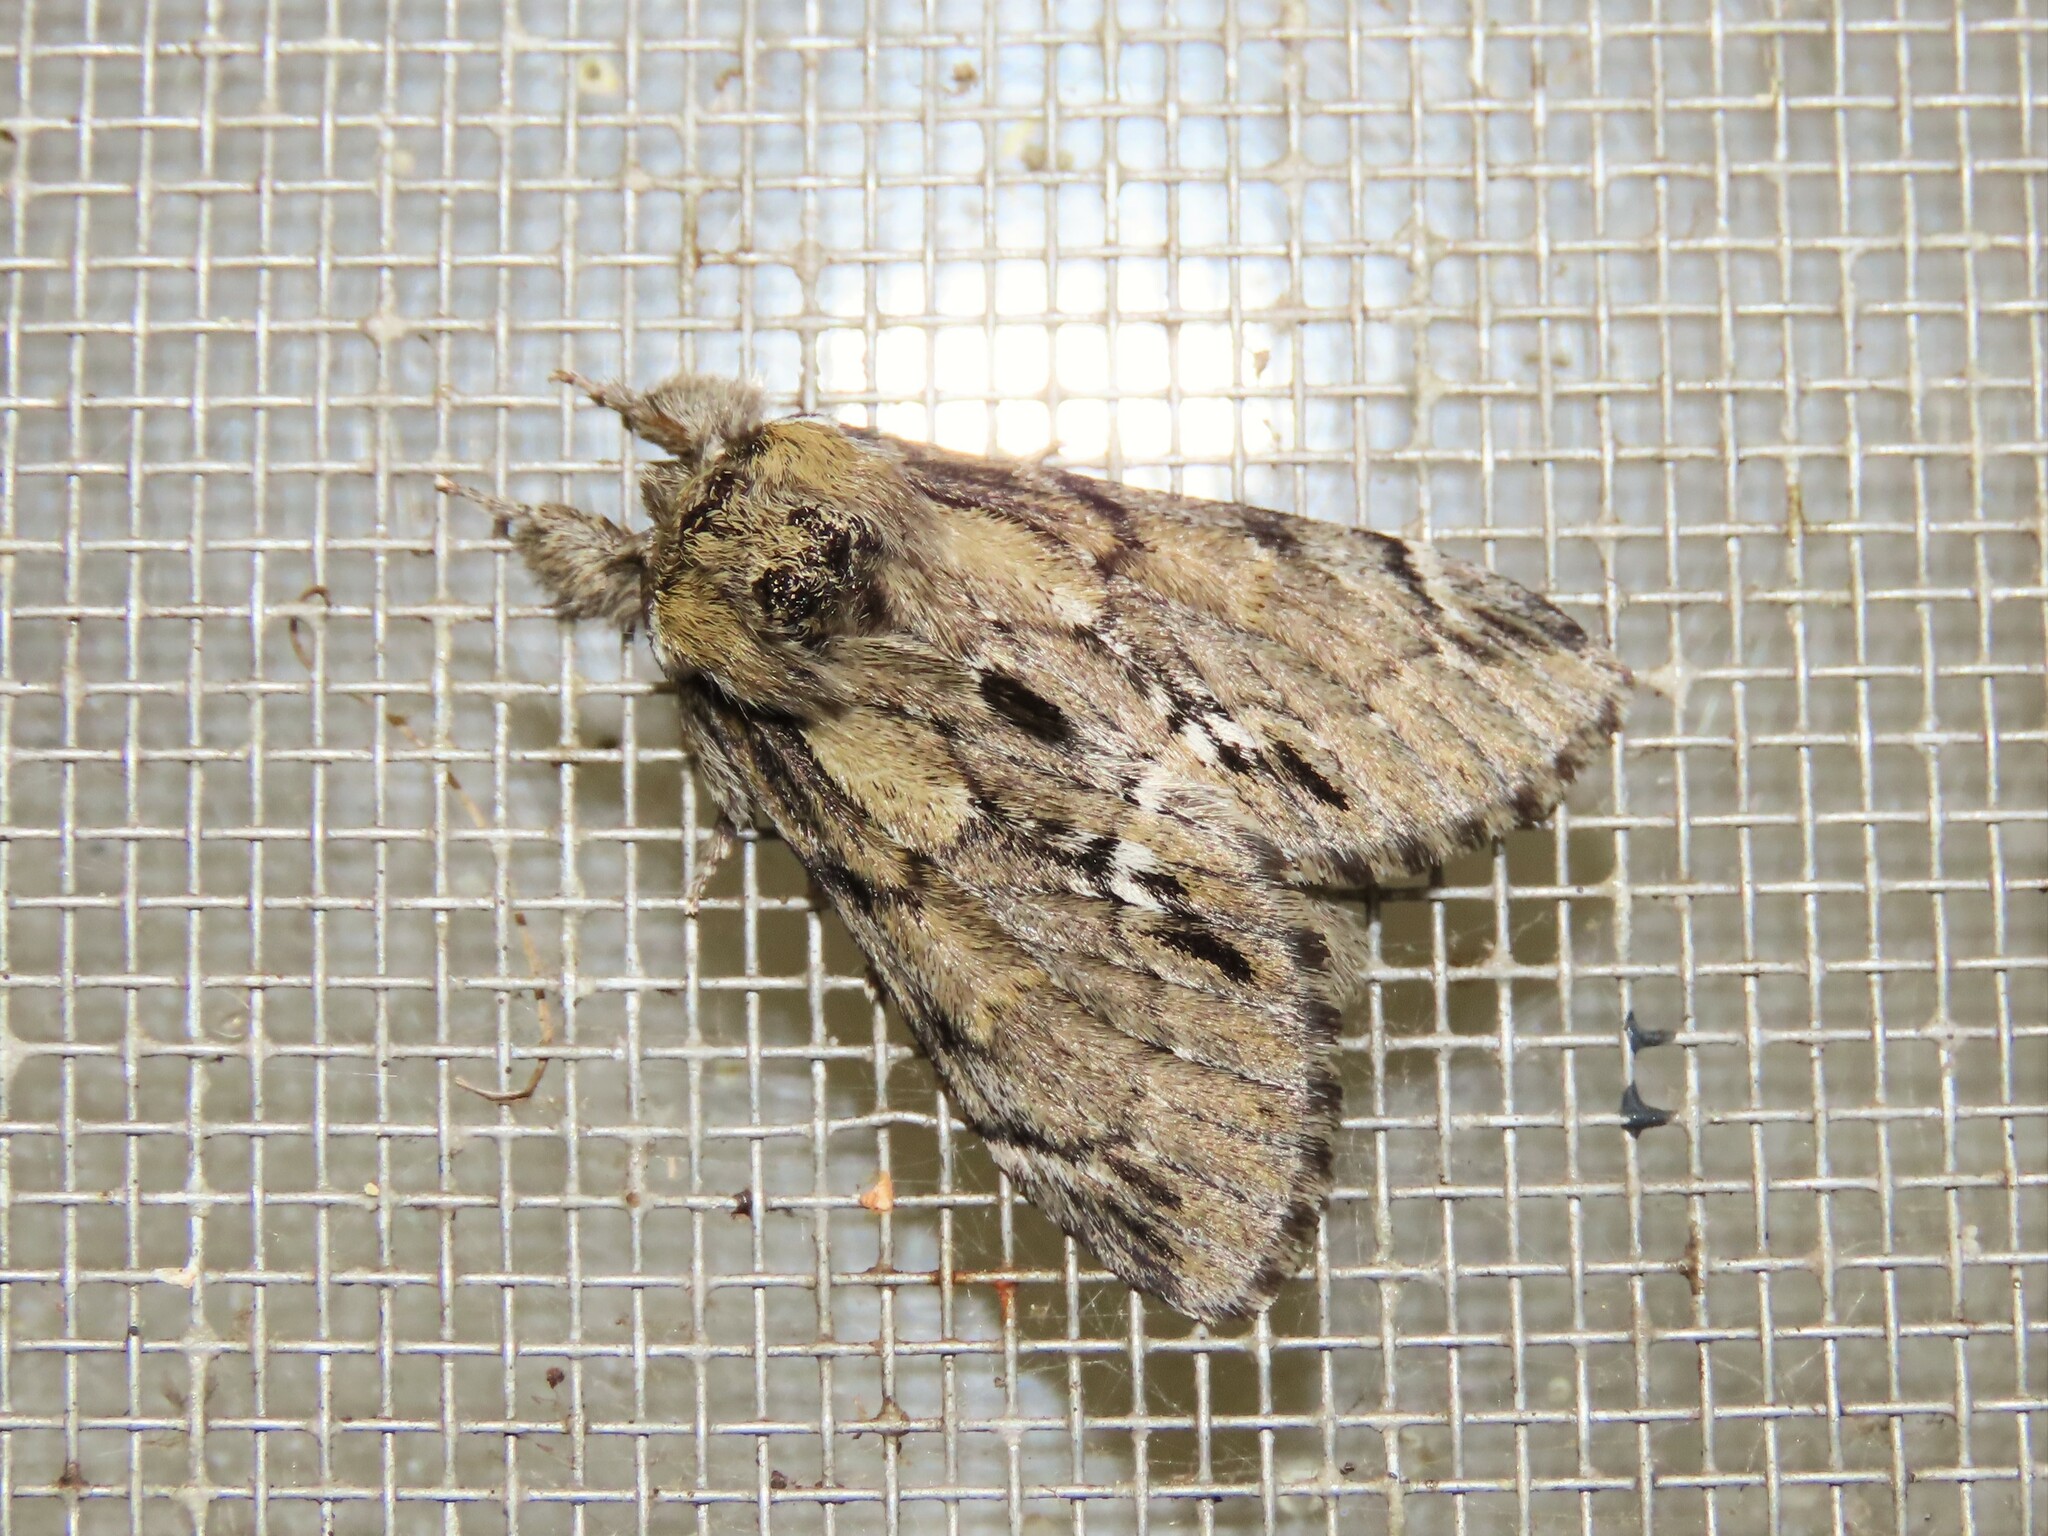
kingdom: Animalia
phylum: Arthropoda
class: Insecta
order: Lepidoptera
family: Notodontidae
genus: Paraeschra
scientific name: Paraeschra georgica
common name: Georgian prominent
